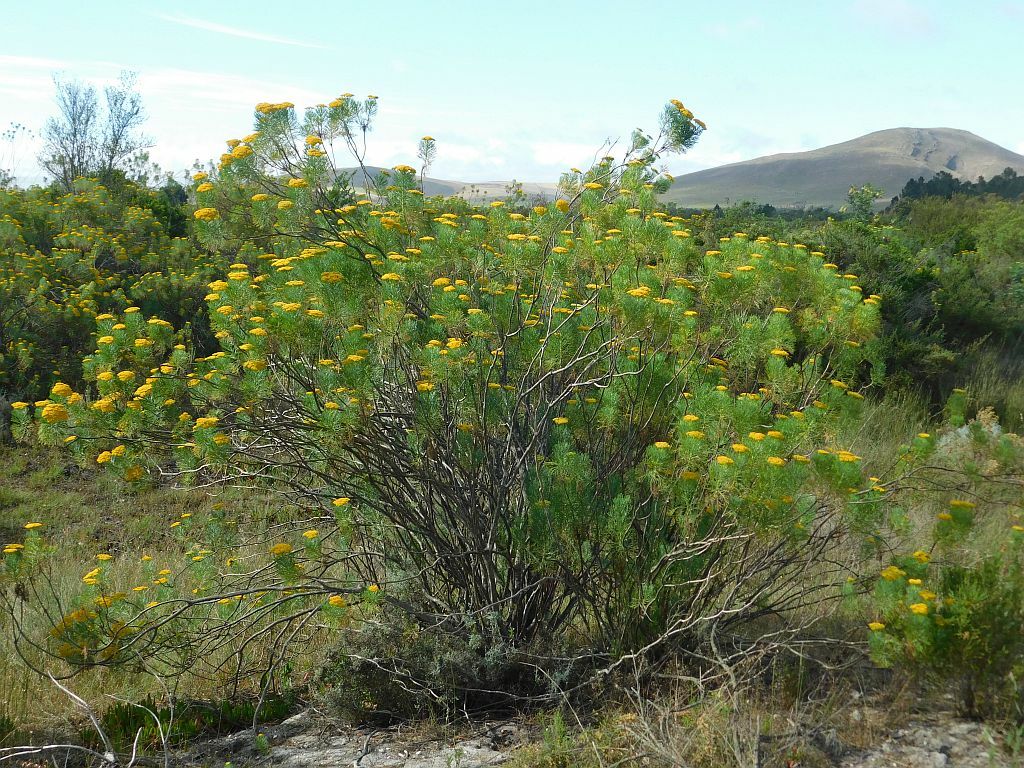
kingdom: Plantae
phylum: Tracheophyta
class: Magnoliopsida
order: Asterales
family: Asteraceae
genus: Hymenolepis
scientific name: Hymenolepis crithmifolia
